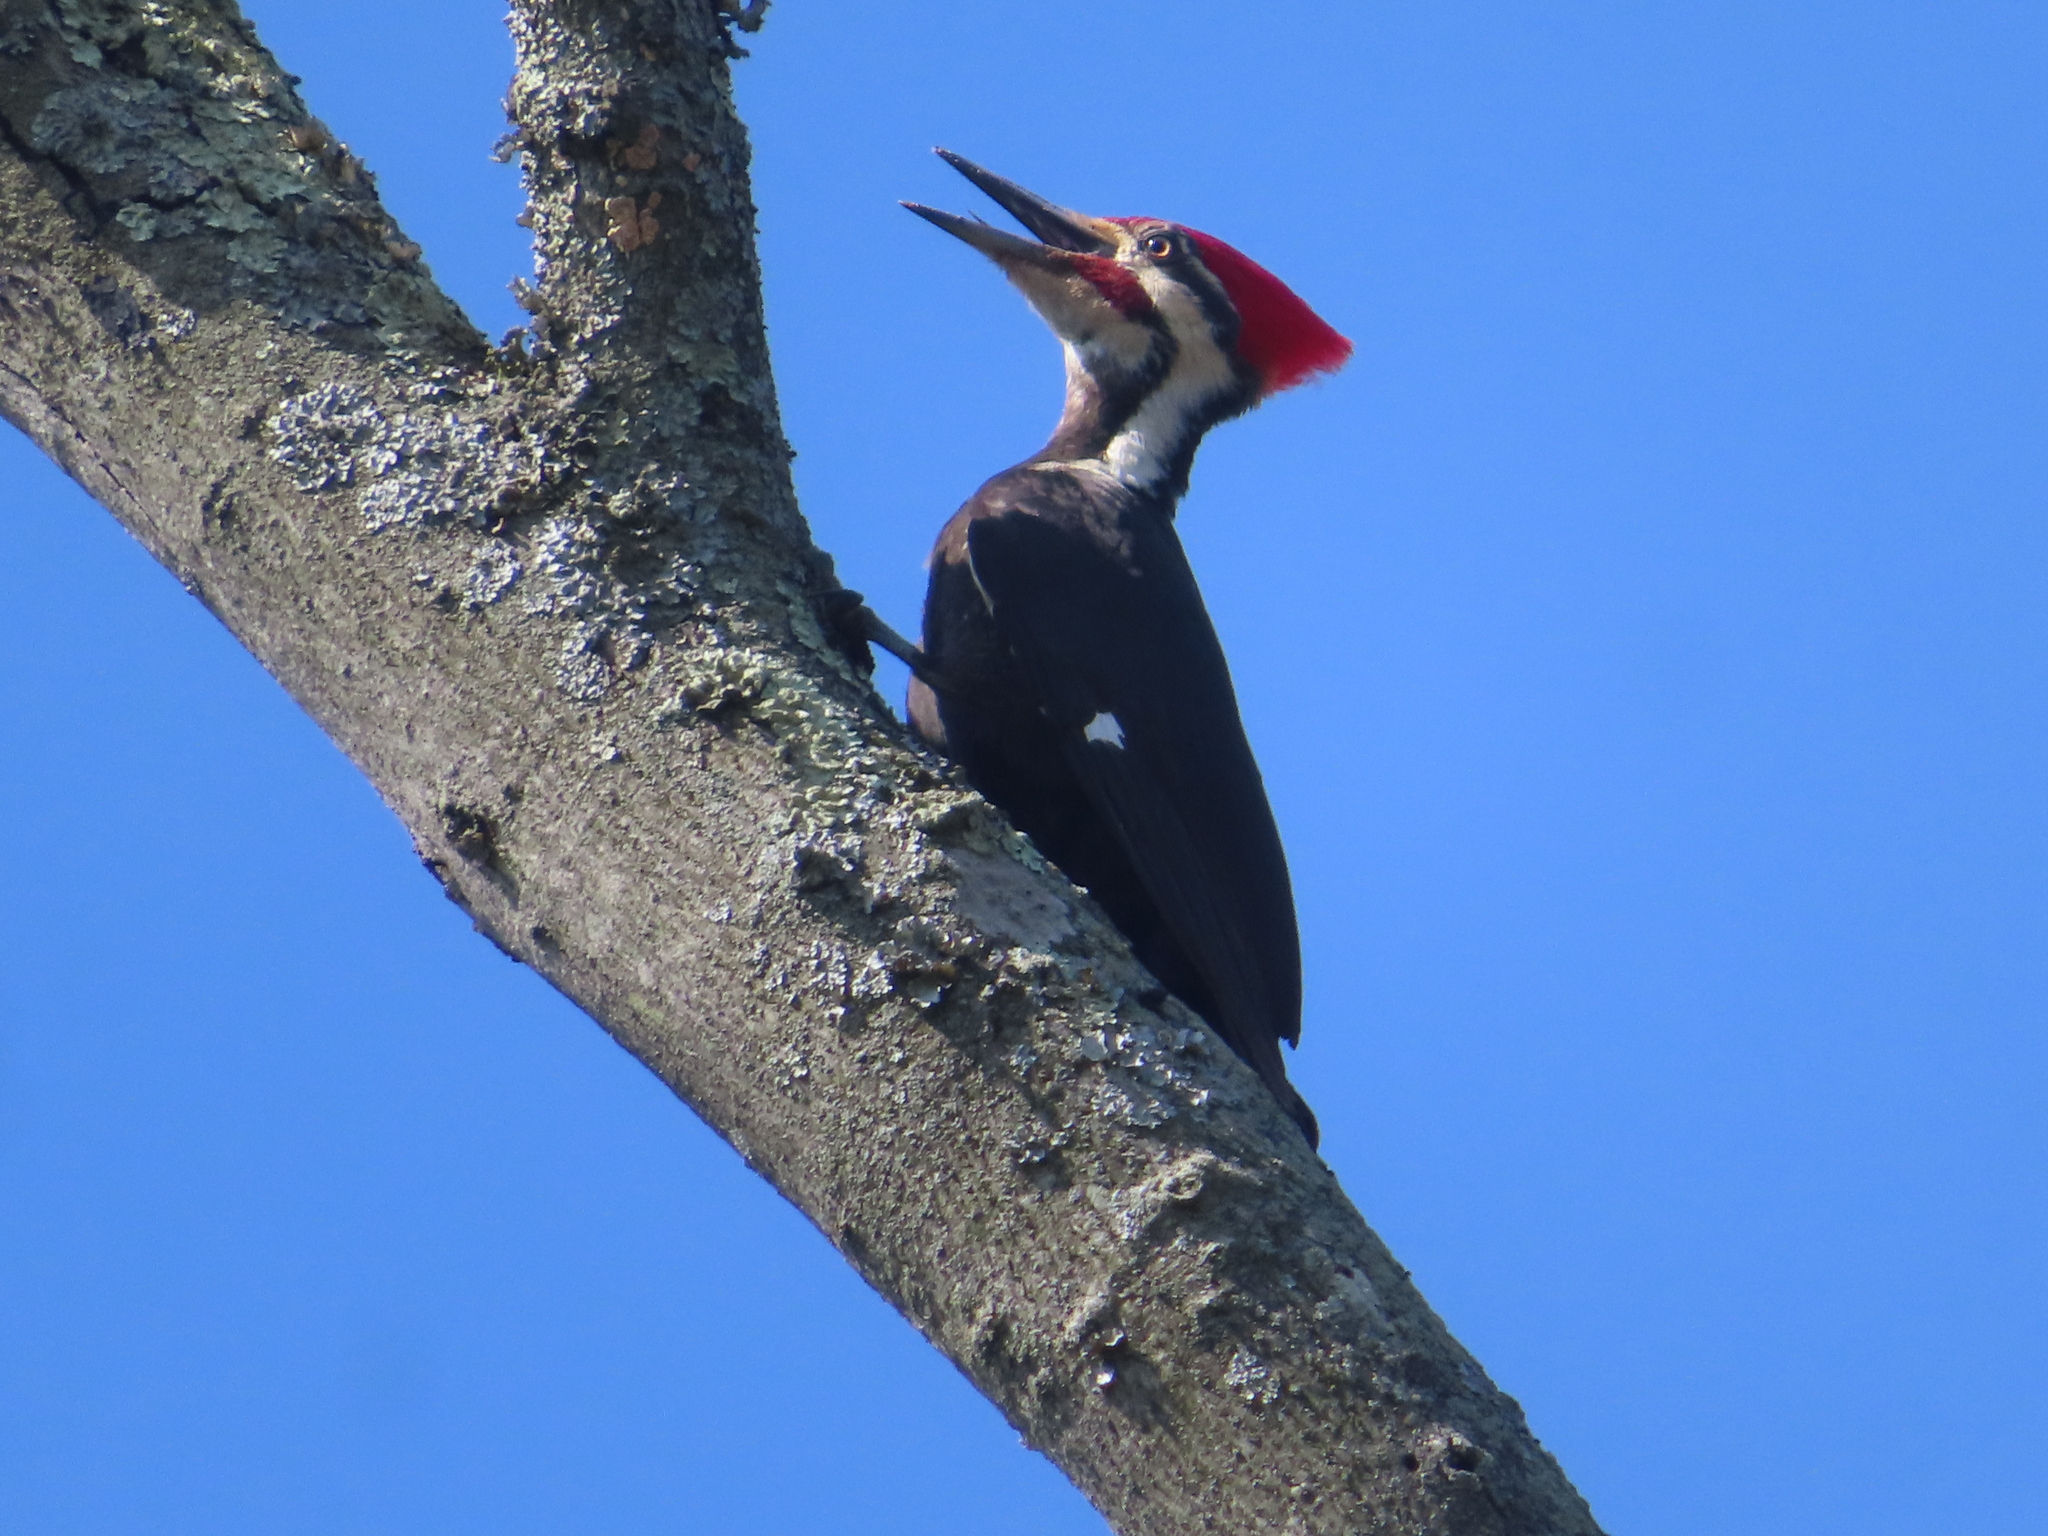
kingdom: Animalia
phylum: Chordata
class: Aves
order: Piciformes
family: Picidae
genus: Dryocopus
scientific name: Dryocopus pileatus
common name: Pileated woodpecker
